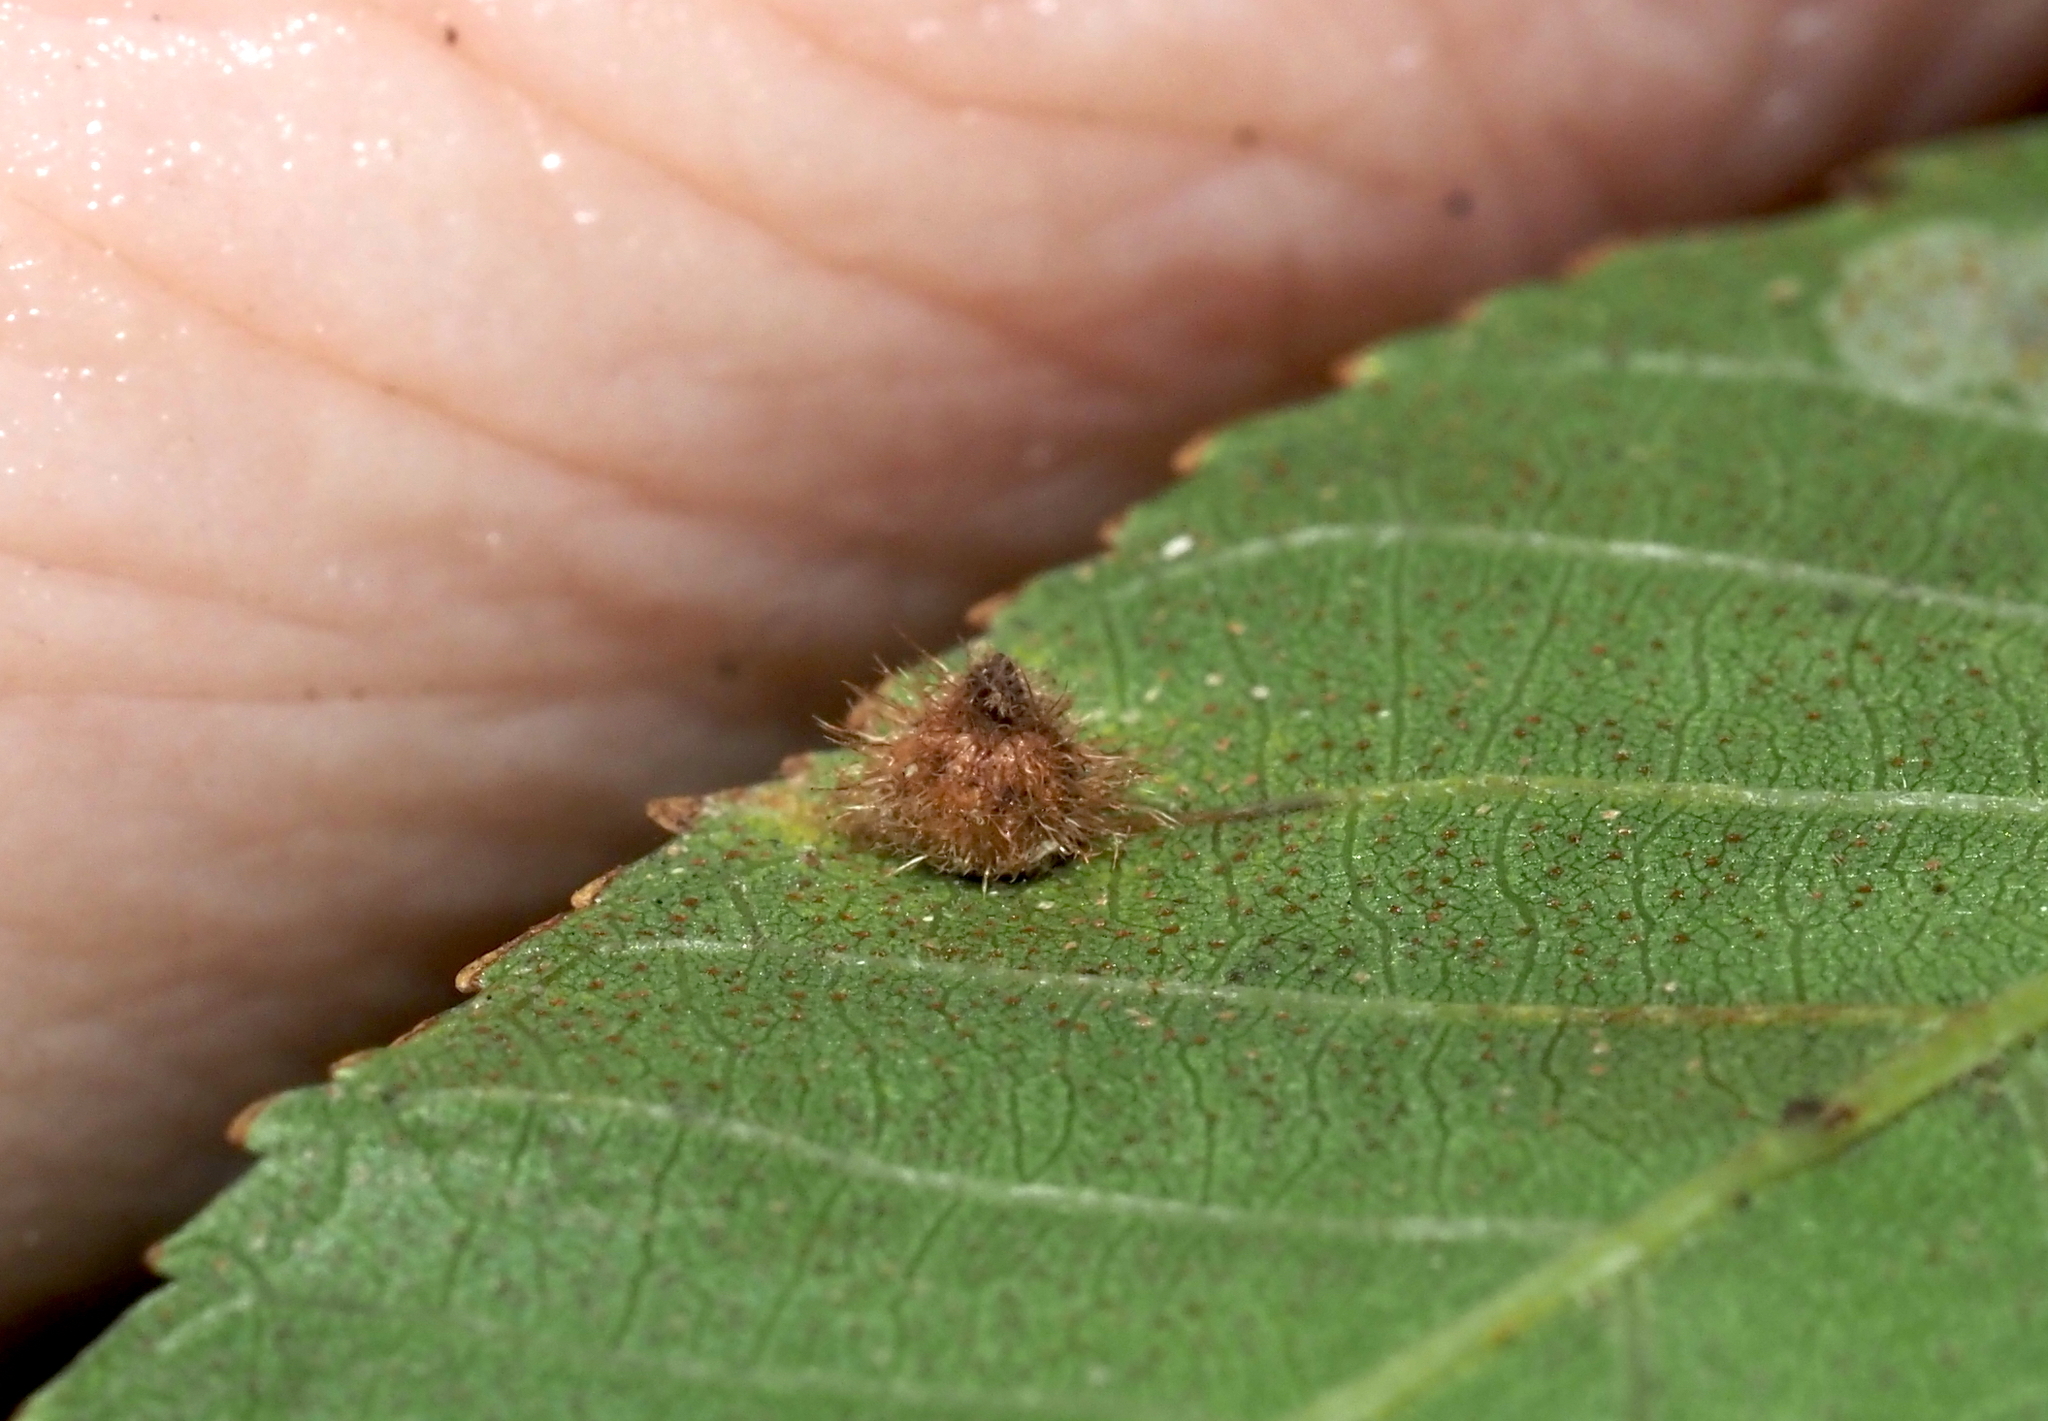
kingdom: Animalia
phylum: Arthropoda
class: Insecta
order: Diptera
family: Cecidomyiidae
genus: Caryomyia
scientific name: Caryomyia echinata
